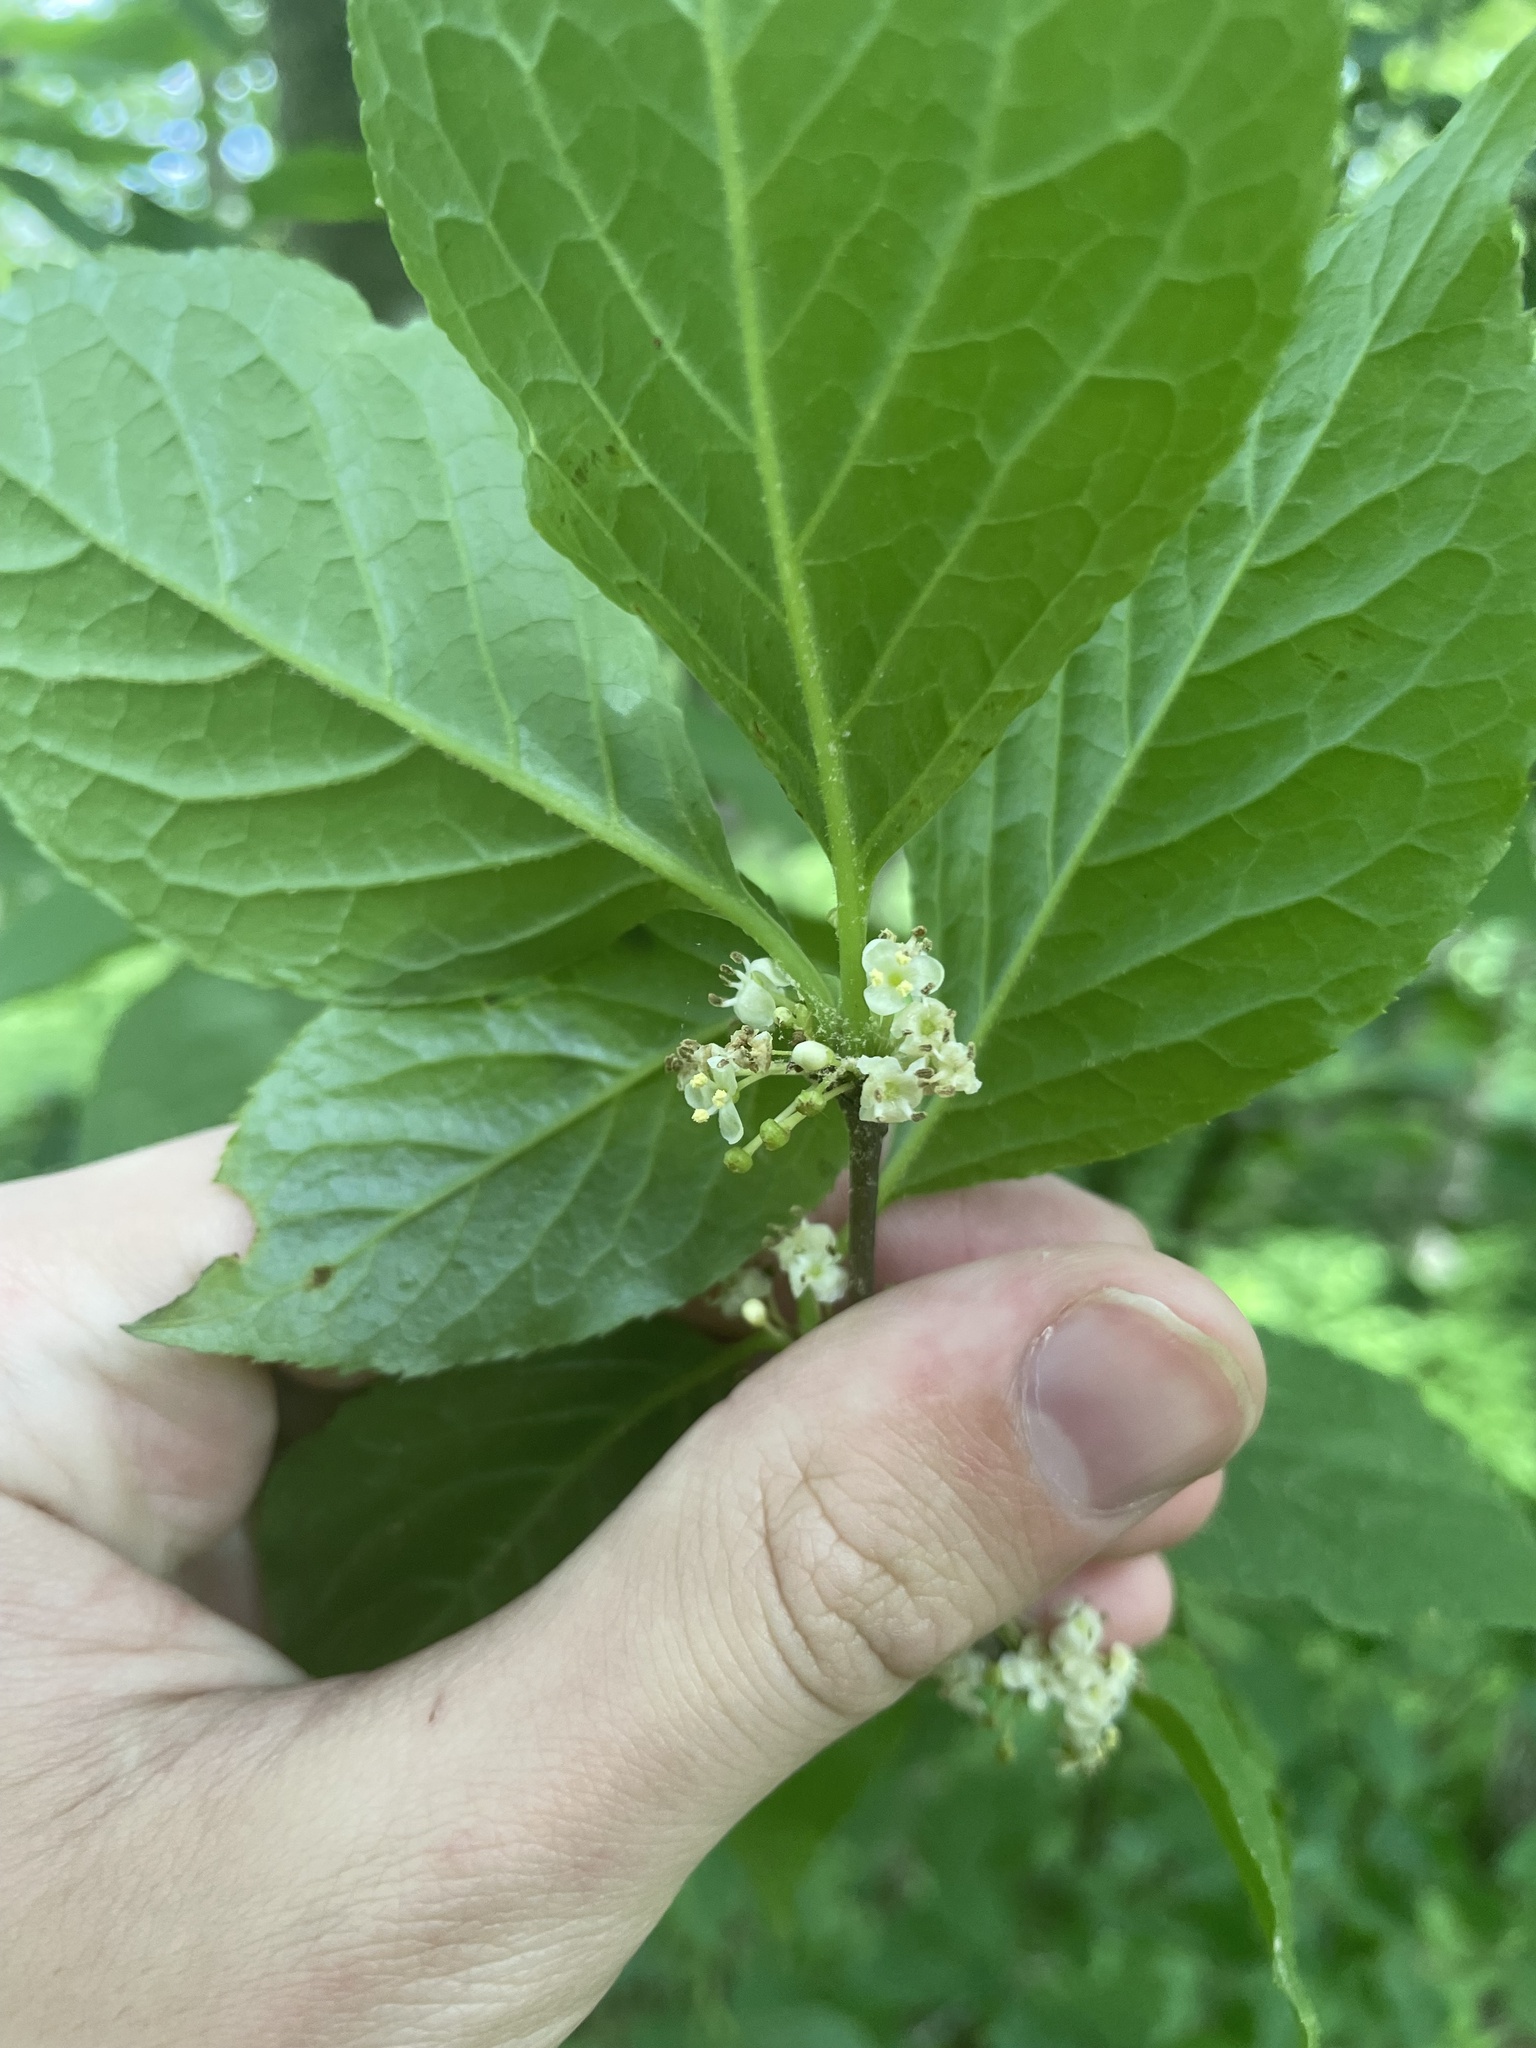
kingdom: Plantae
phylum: Tracheophyta
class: Magnoliopsida
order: Aquifoliales
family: Aquifoliaceae
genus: Ilex
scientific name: Ilex montana
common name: Mountain winterberry
